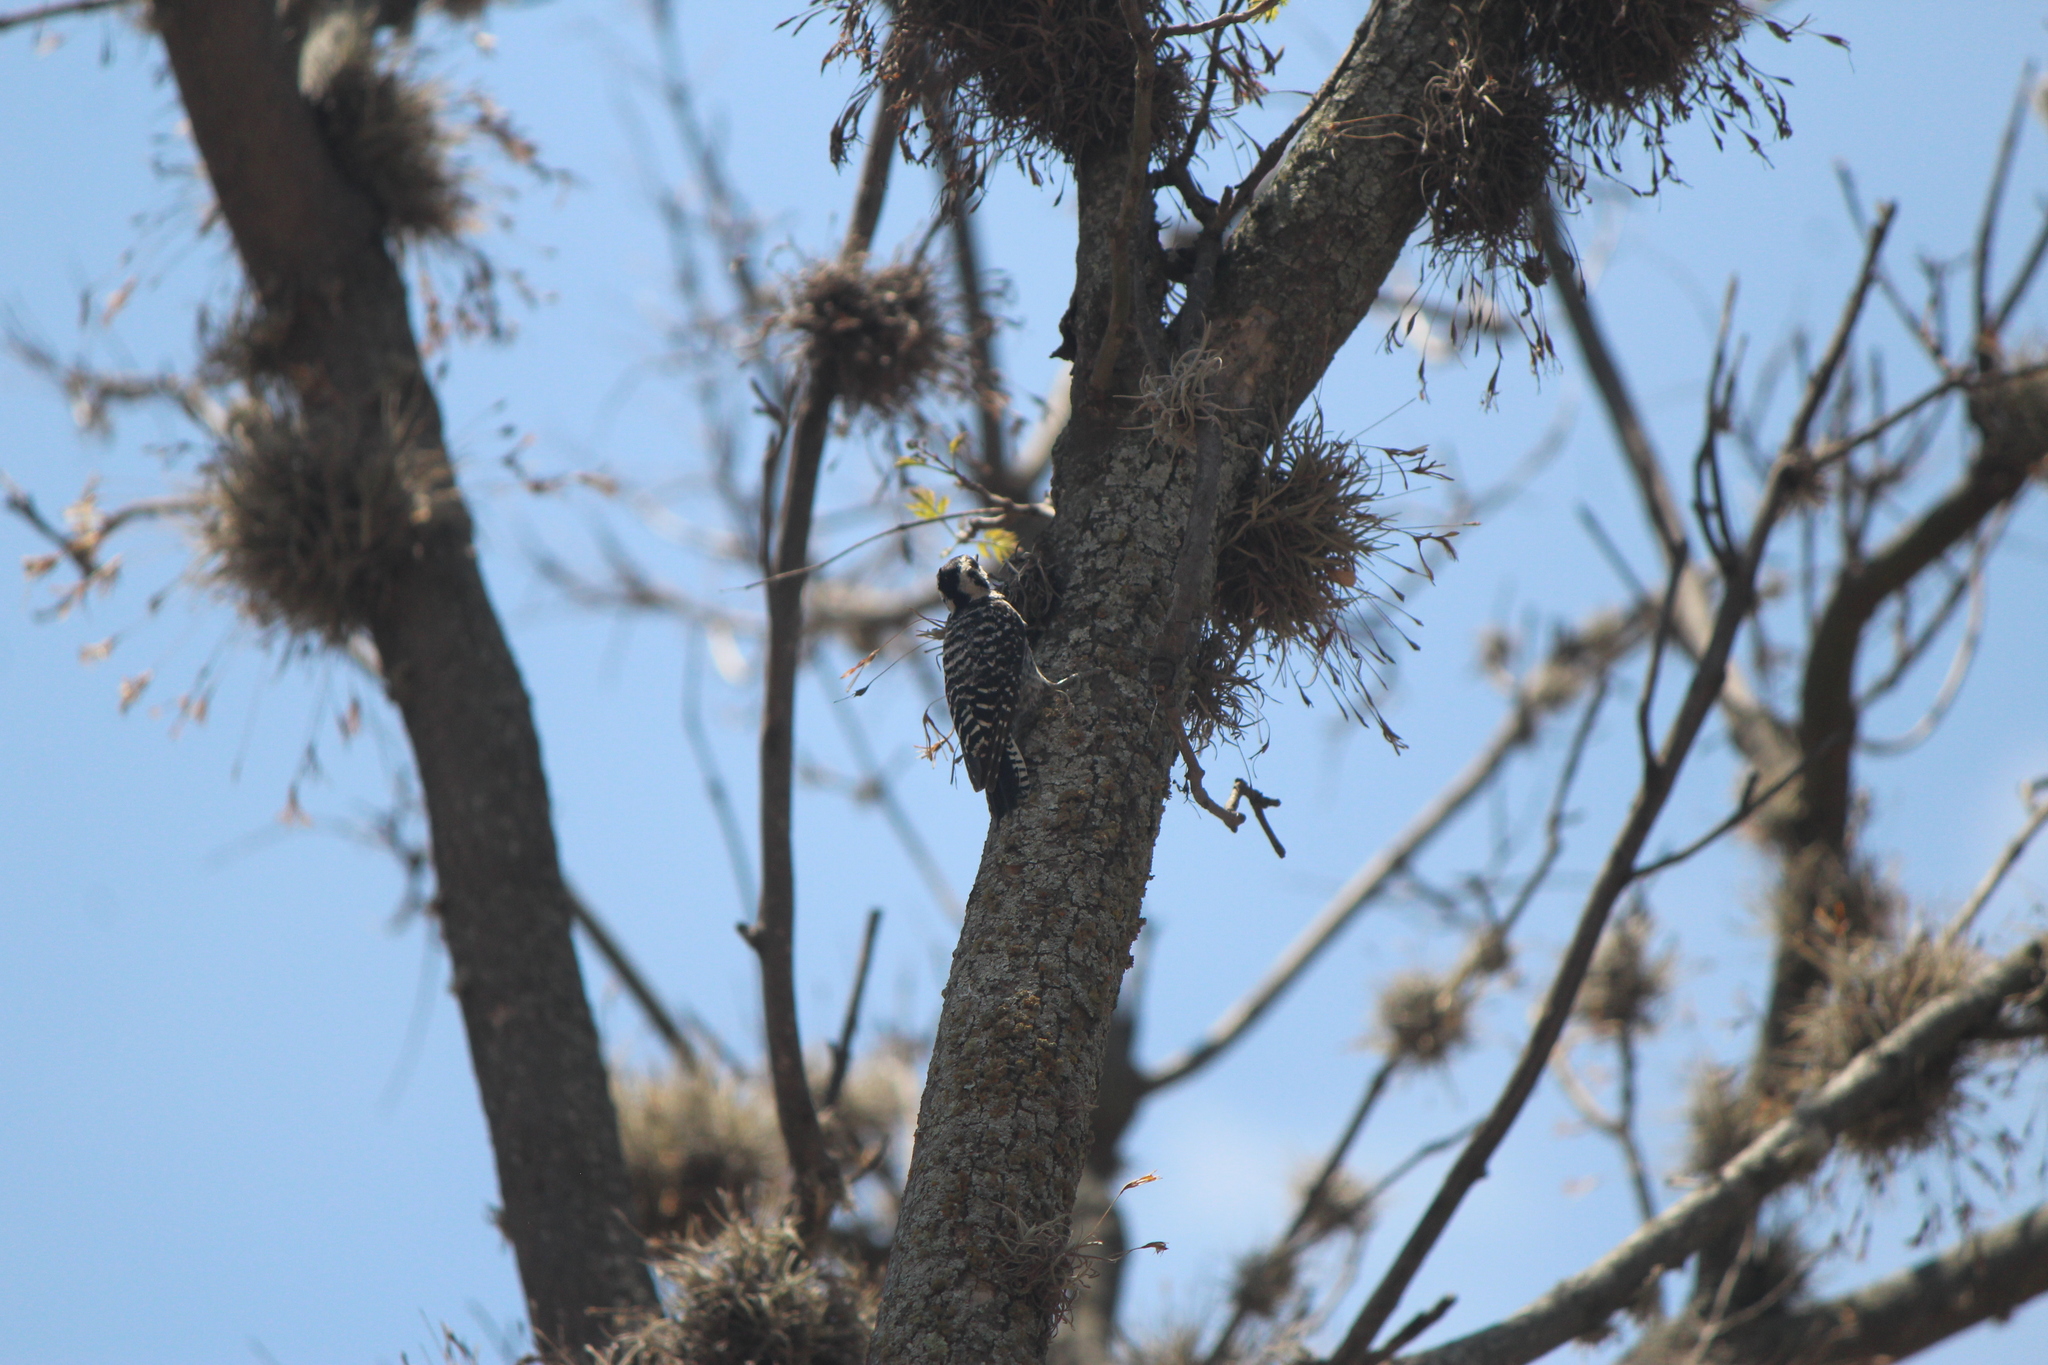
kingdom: Animalia
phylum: Chordata
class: Aves
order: Piciformes
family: Picidae
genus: Dryobates
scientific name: Dryobates scalaris
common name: Ladder-backed woodpecker
